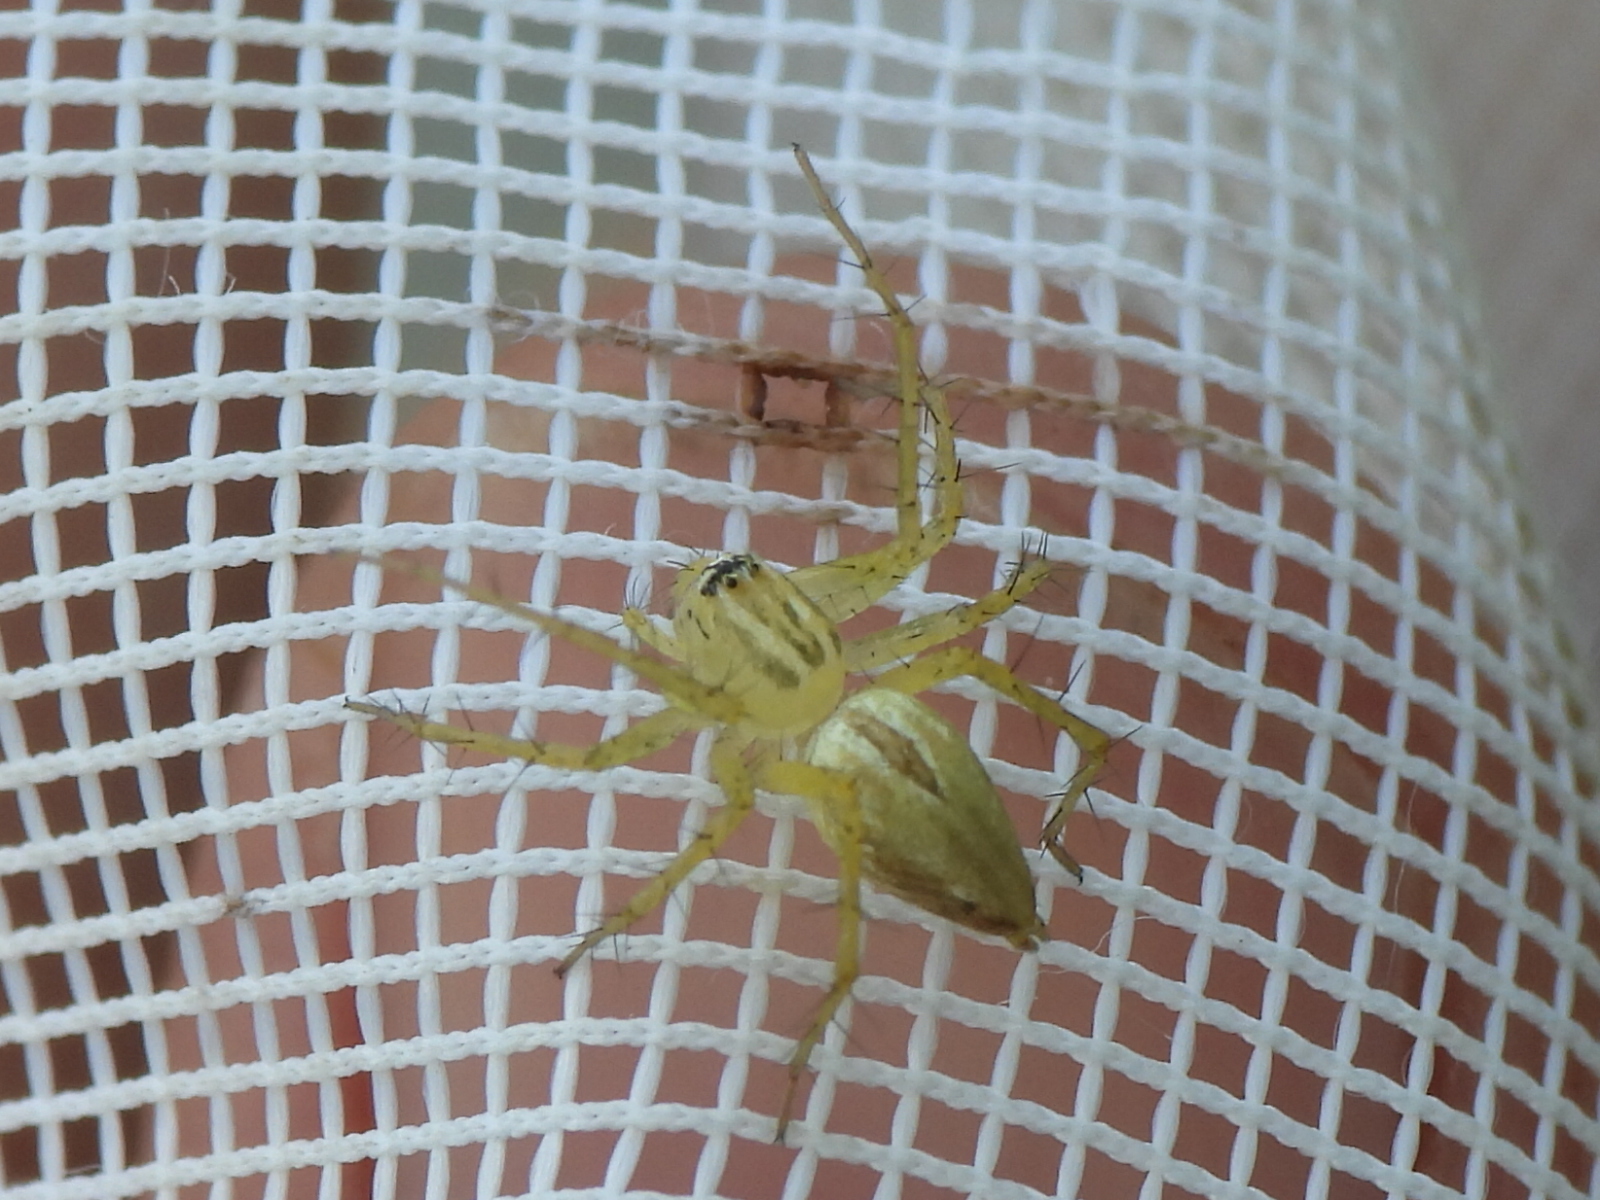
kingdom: Animalia
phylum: Arthropoda
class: Arachnida
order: Araneae
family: Oxyopidae
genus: Oxyopes
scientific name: Oxyopes salticus
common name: Lynx spiders
